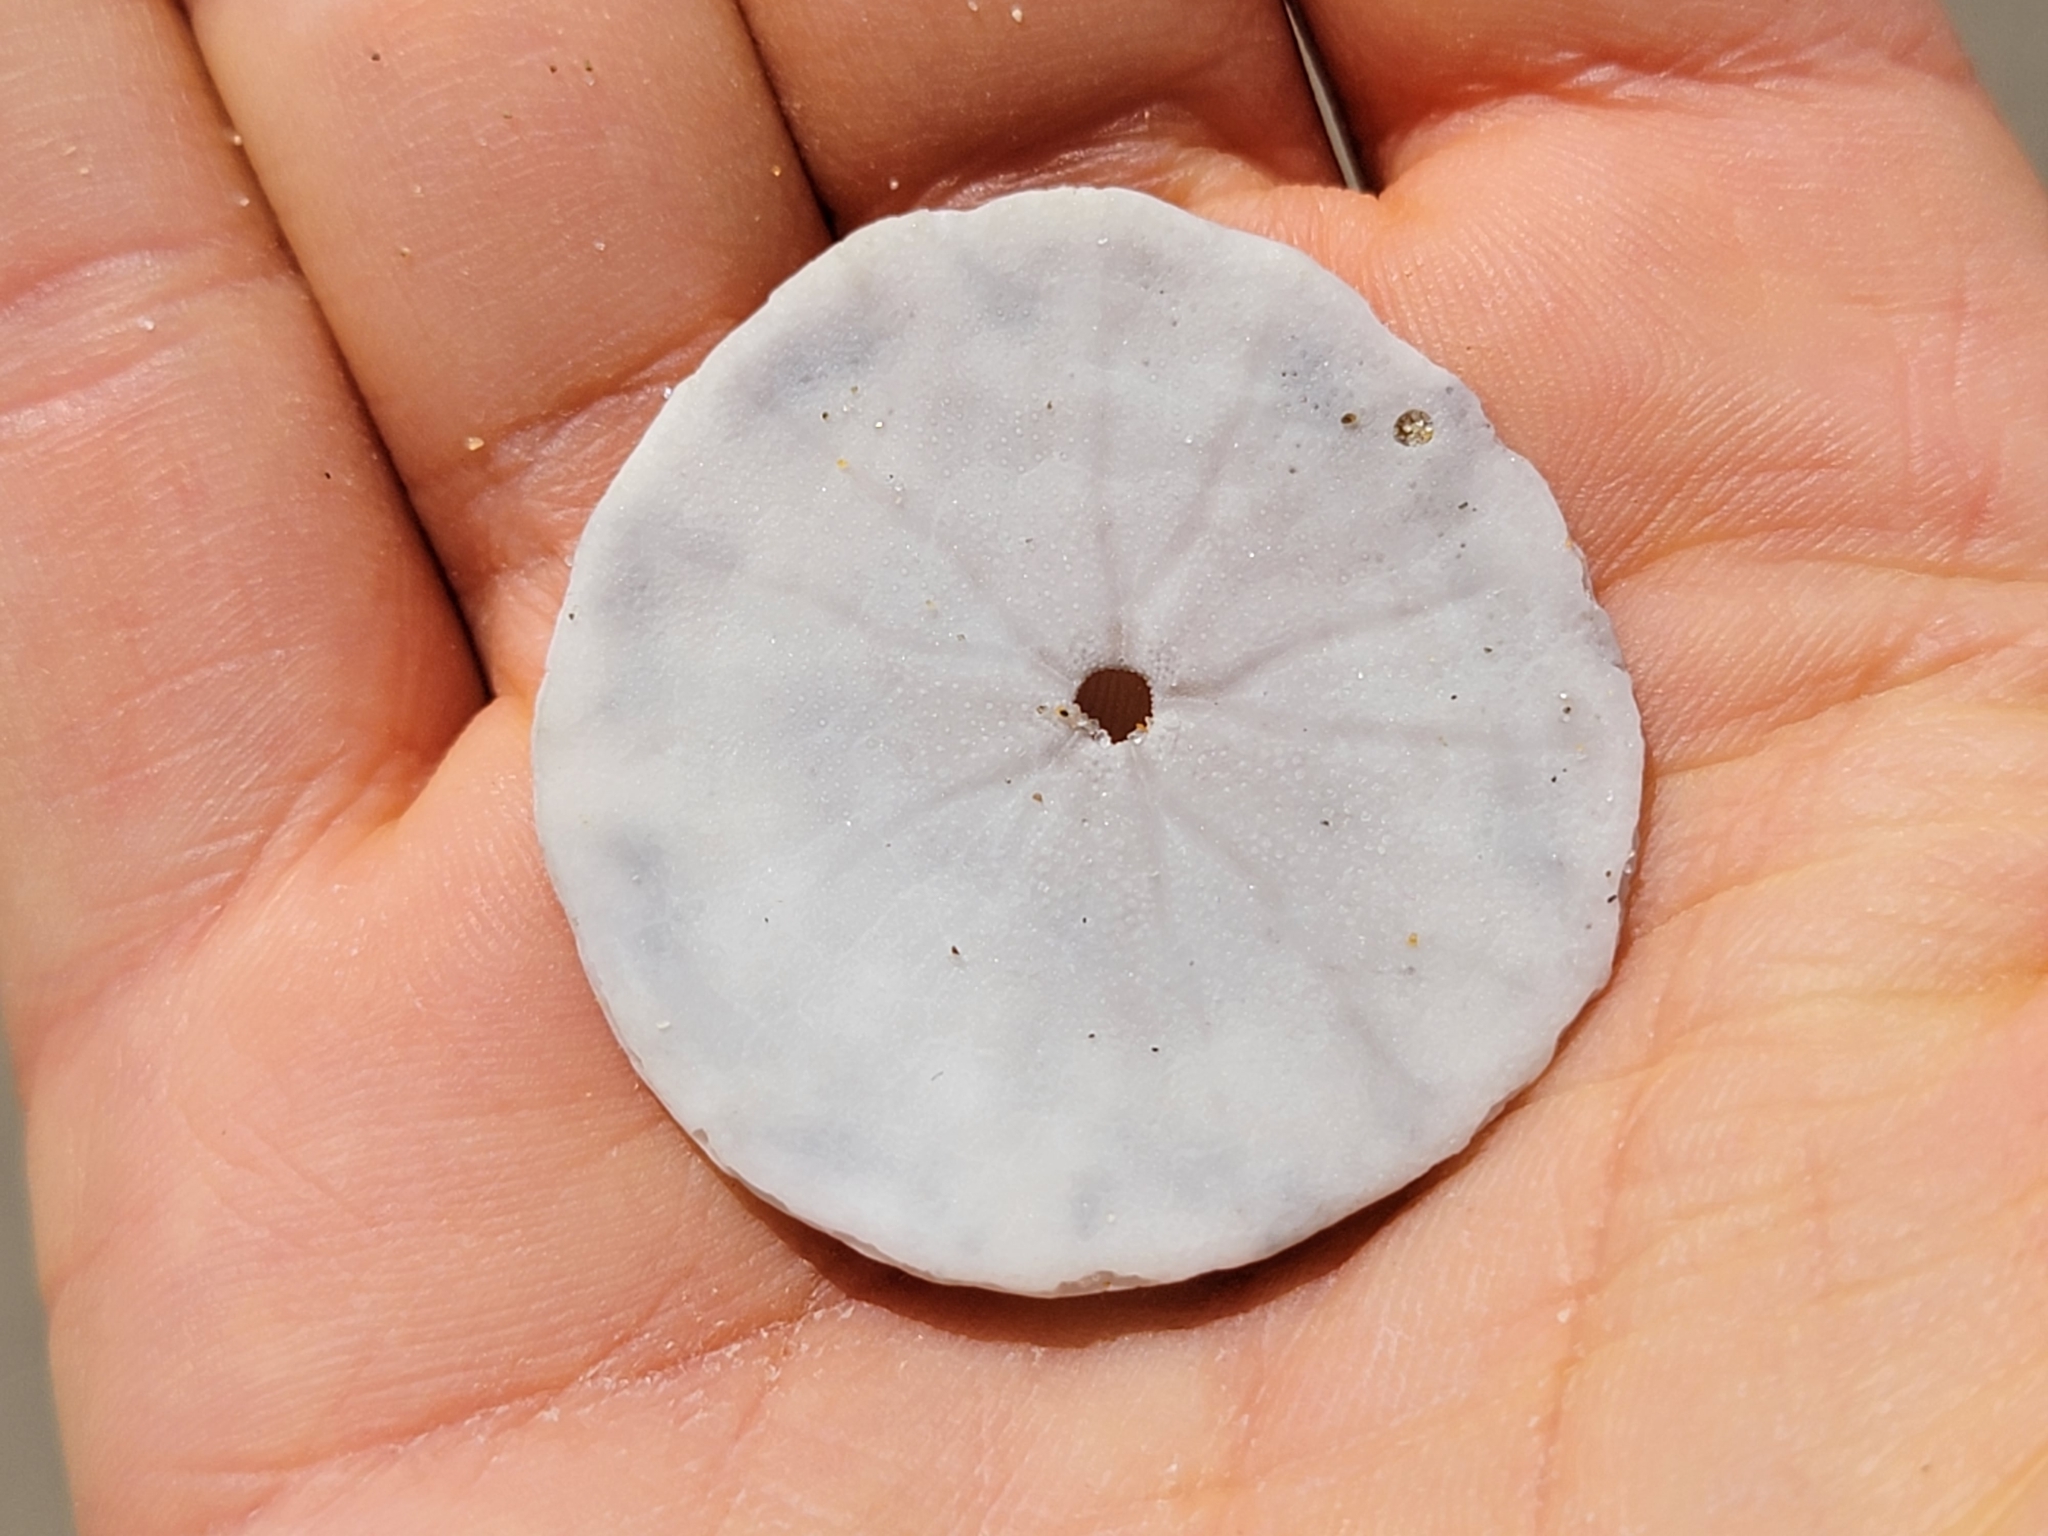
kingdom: Animalia
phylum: Echinodermata
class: Echinoidea
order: Echinolampadacea
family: Dendrasteridae
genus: Dendraster
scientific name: Dendraster excentricus
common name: Eccentric sand dollar sea urchin
